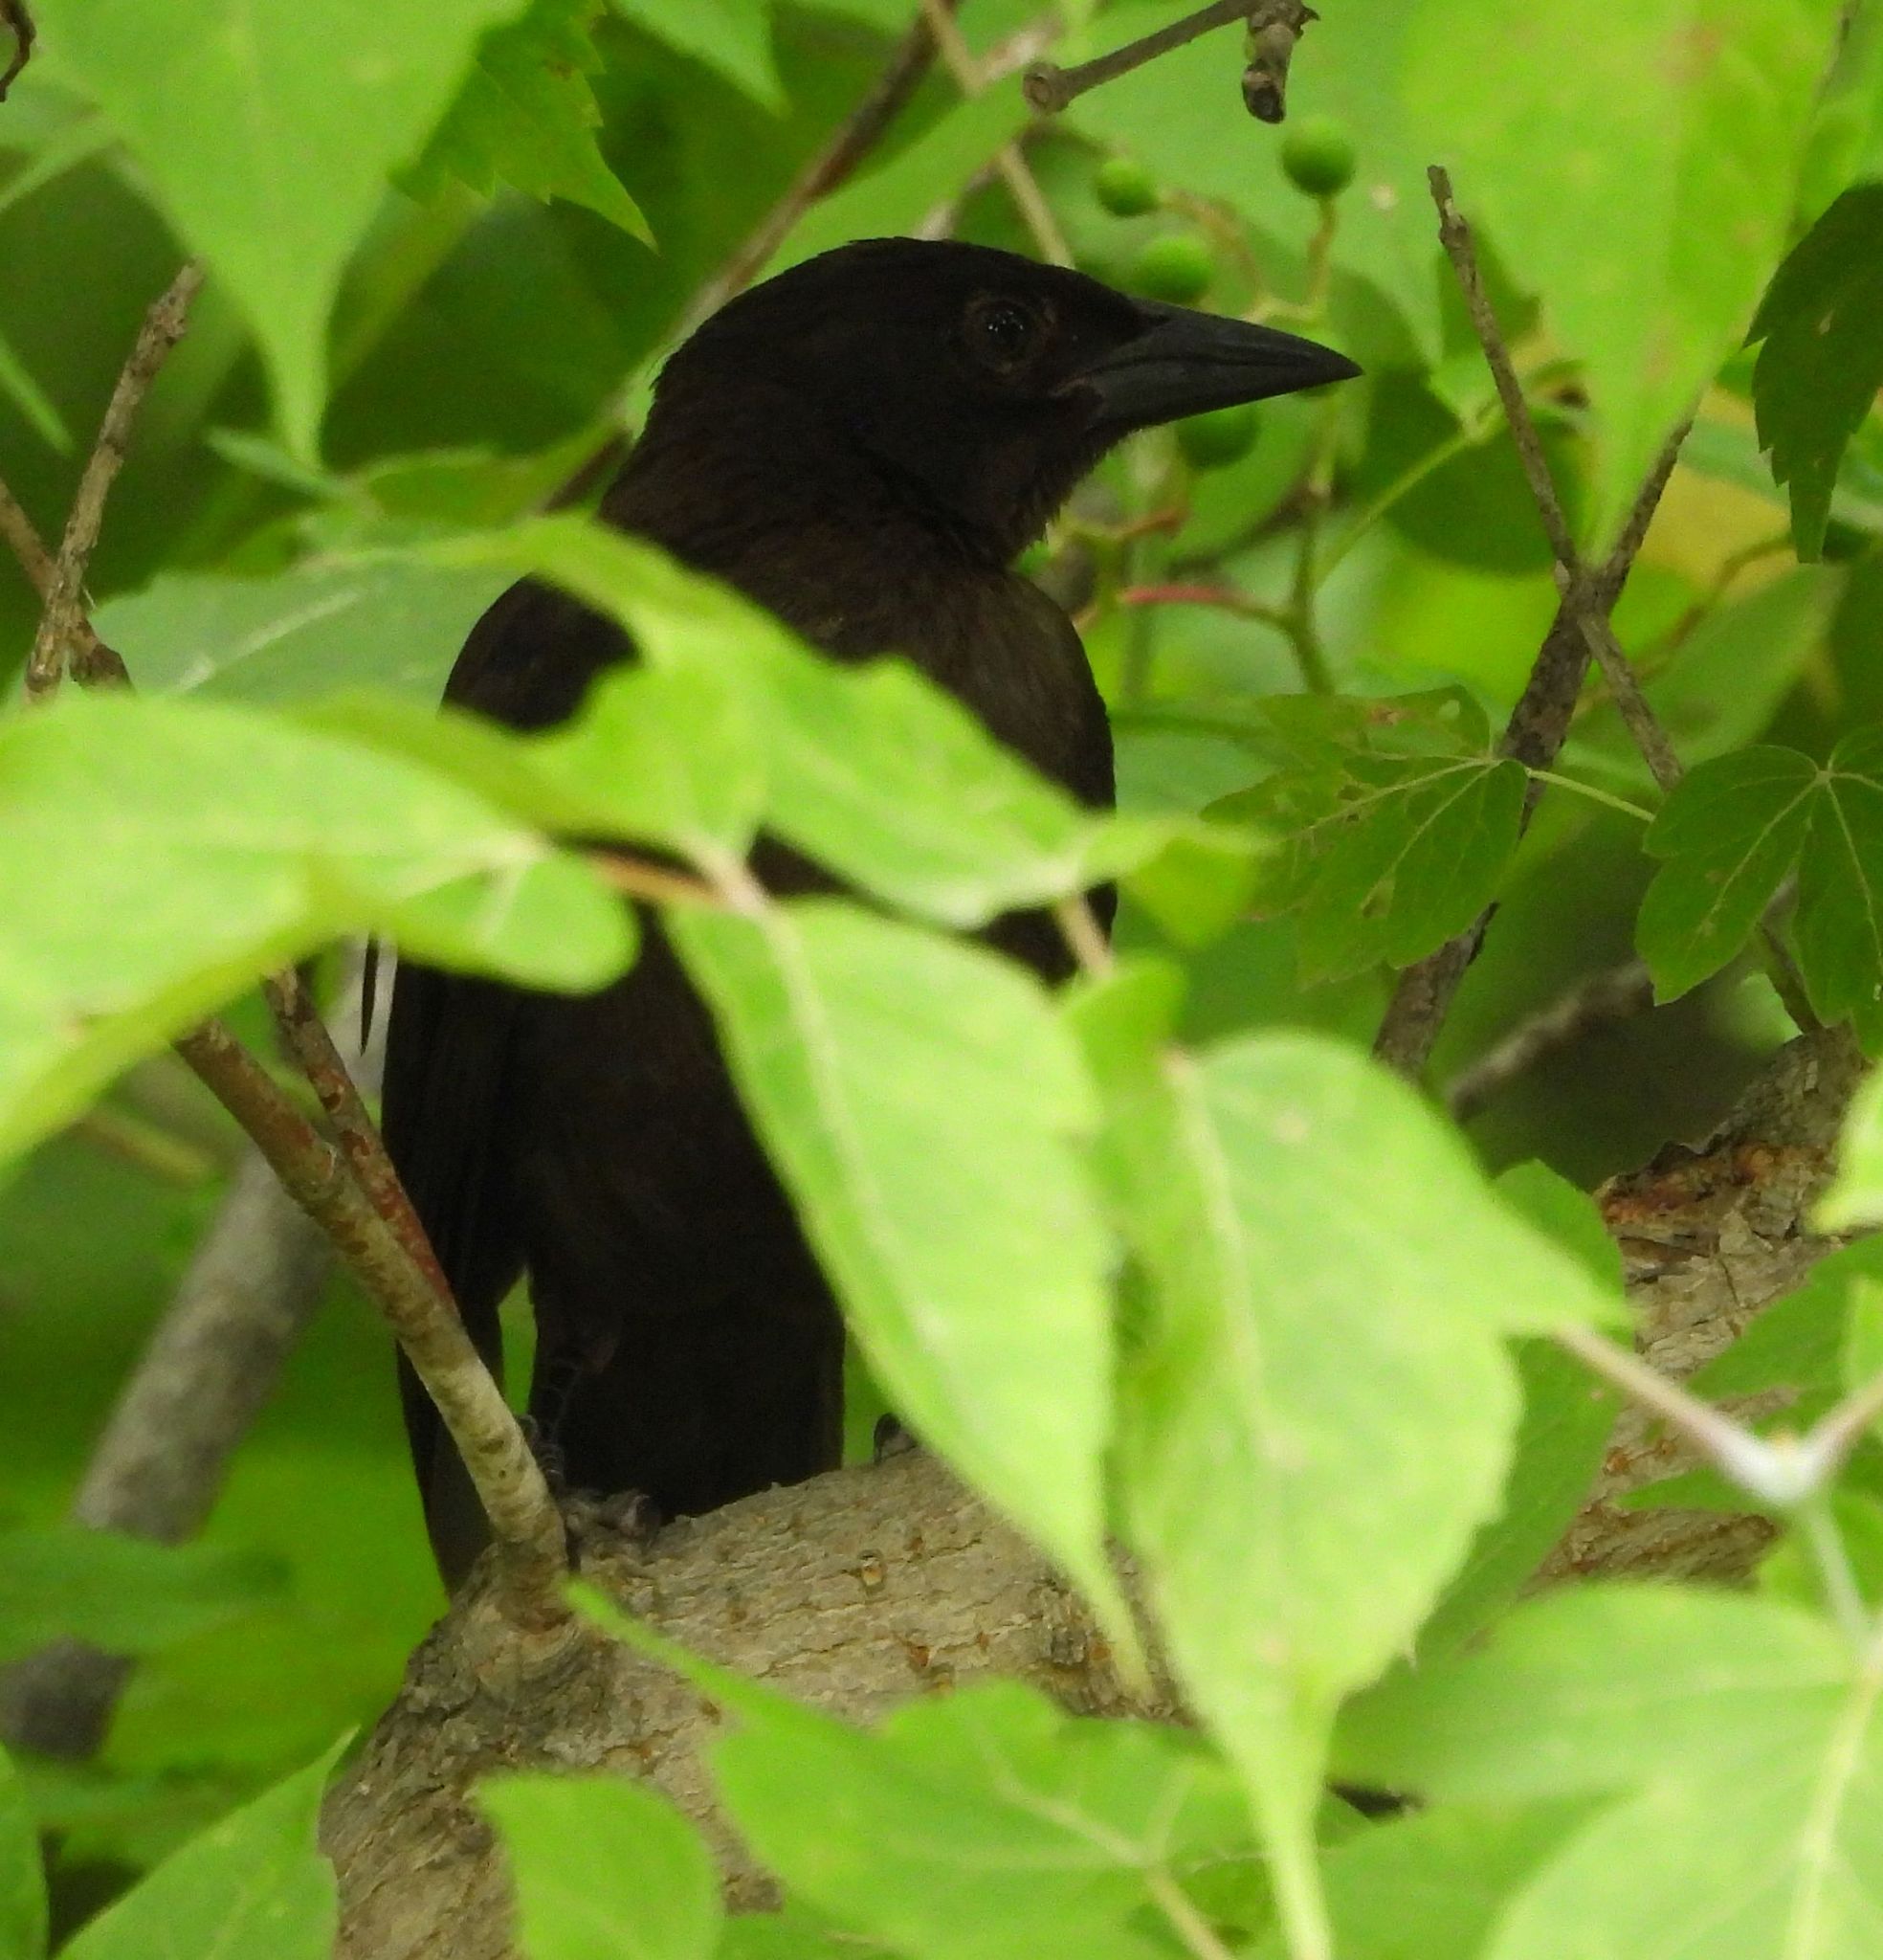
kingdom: Animalia
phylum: Chordata
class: Aves
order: Passeriformes
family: Icteridae
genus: Quiscalus
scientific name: Quiscalus quiscula
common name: Common grackle
